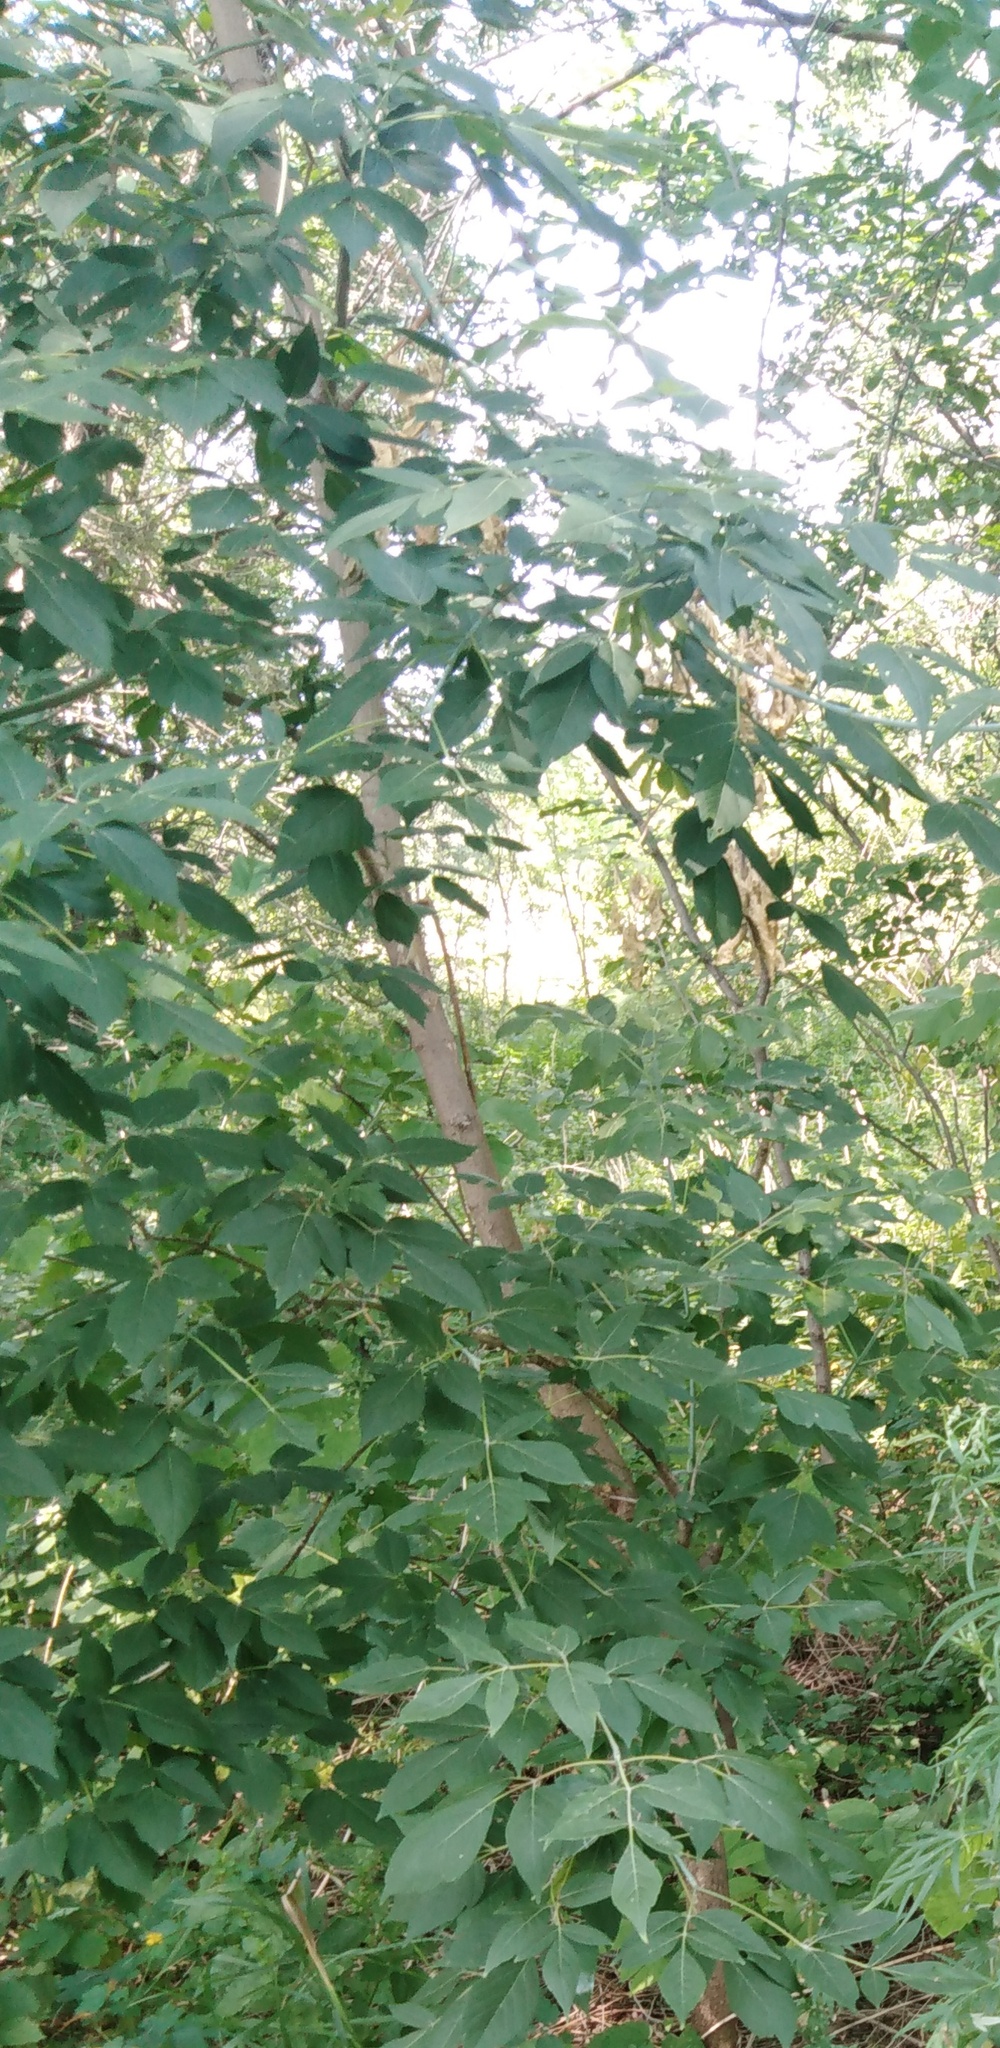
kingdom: Plantae
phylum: Tracheophyta
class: Magnoliopsida
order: Sapindales
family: Sapindaceae
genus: Acer
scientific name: Acer negundo
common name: Ashleaf maple
